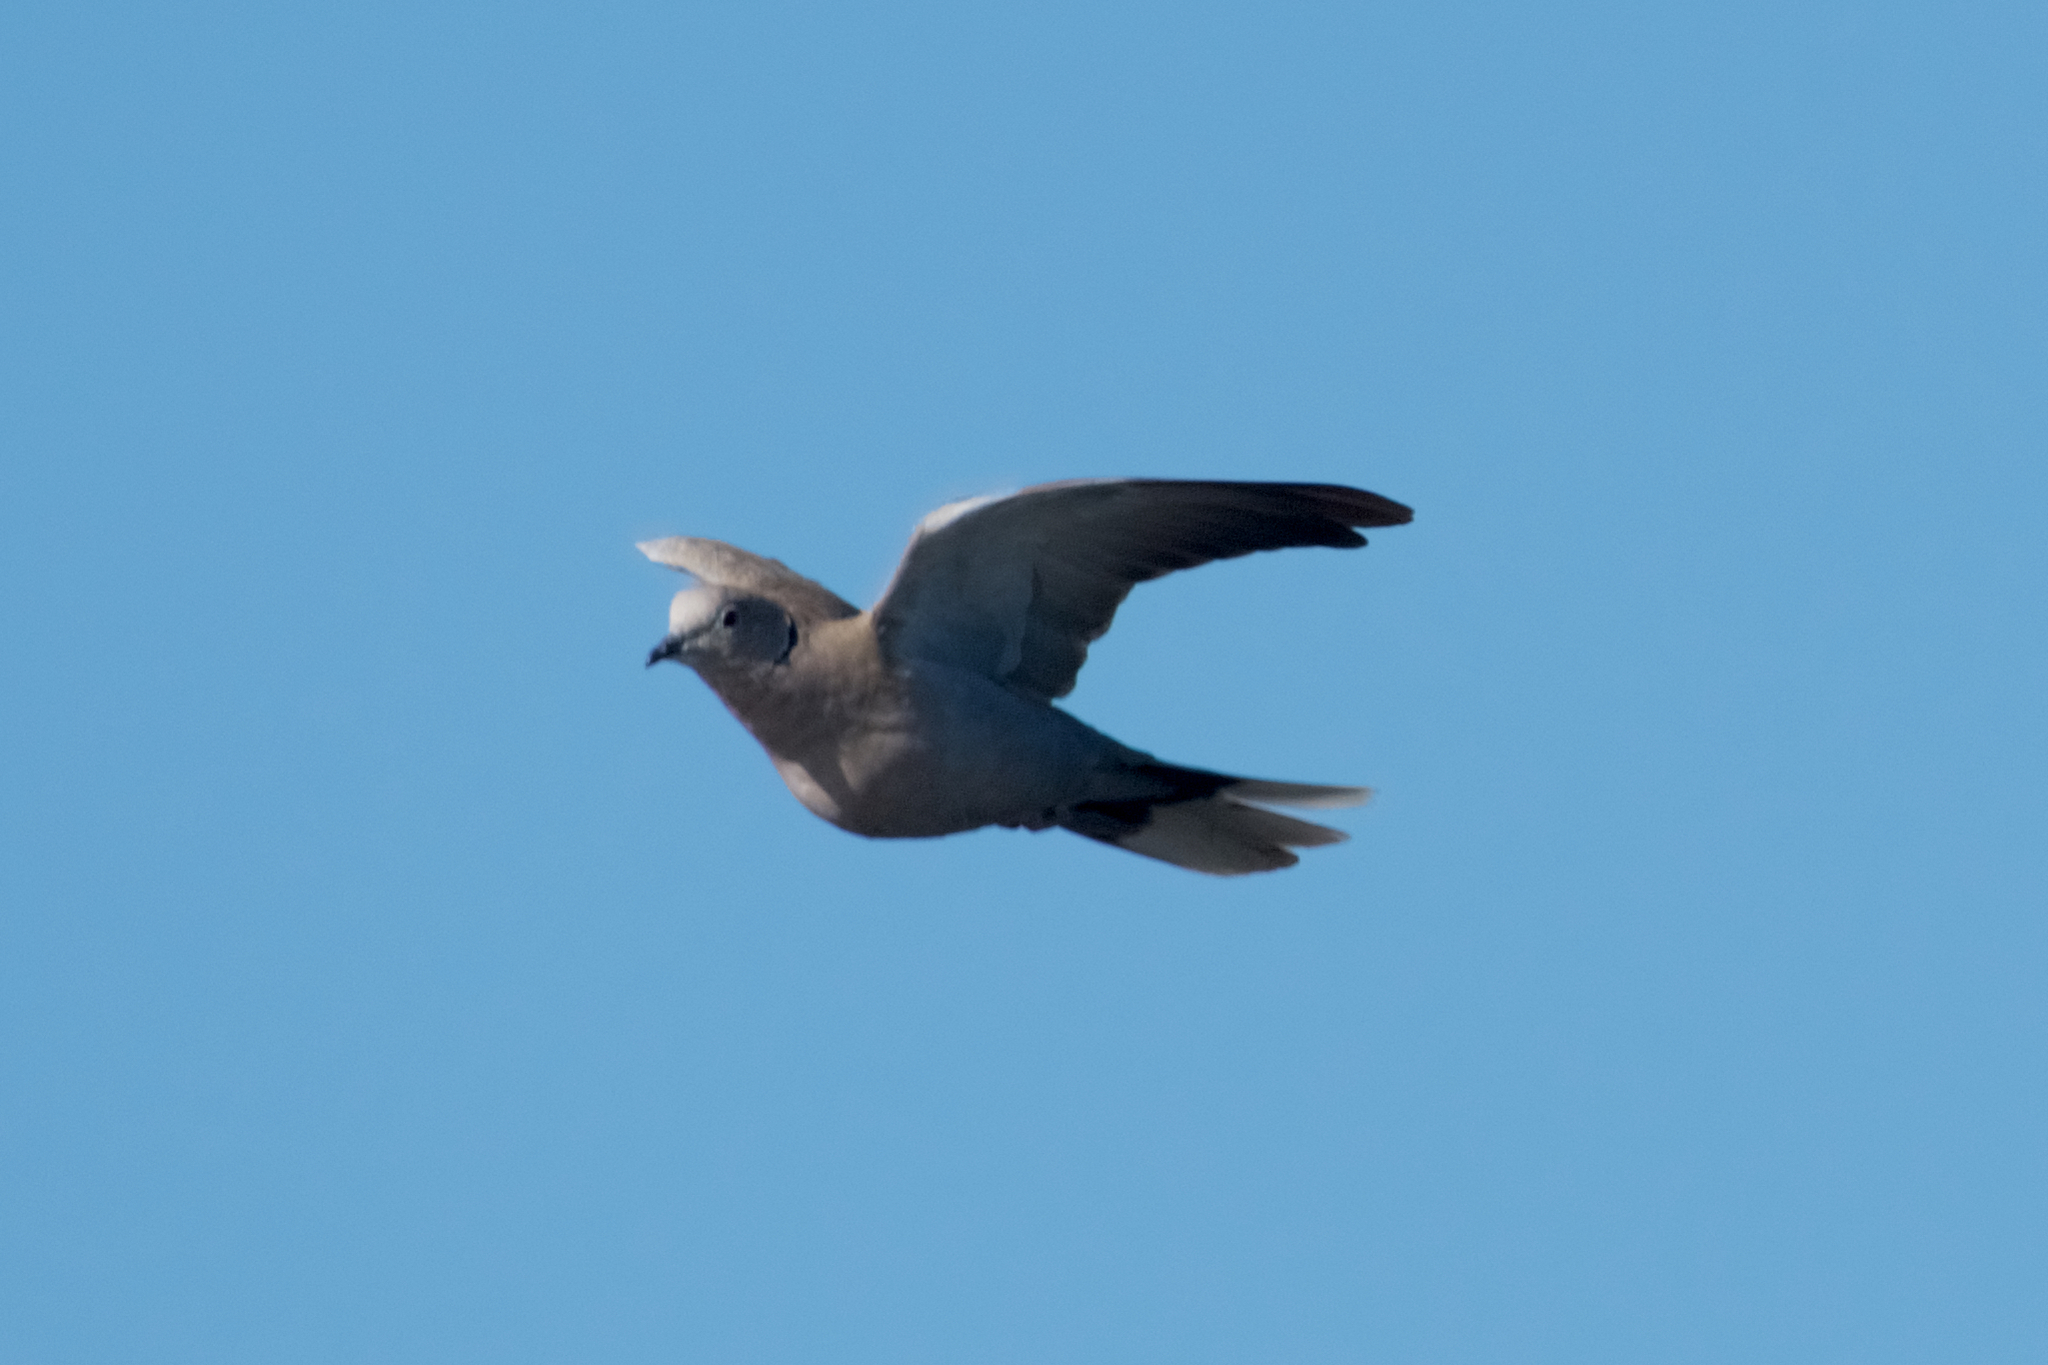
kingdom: Animalia
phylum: Chordata
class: Aves
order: Columbiformes
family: Columbidae
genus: Streptopelia
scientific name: Streptopelia decaocto
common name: Eurasian collared dove
